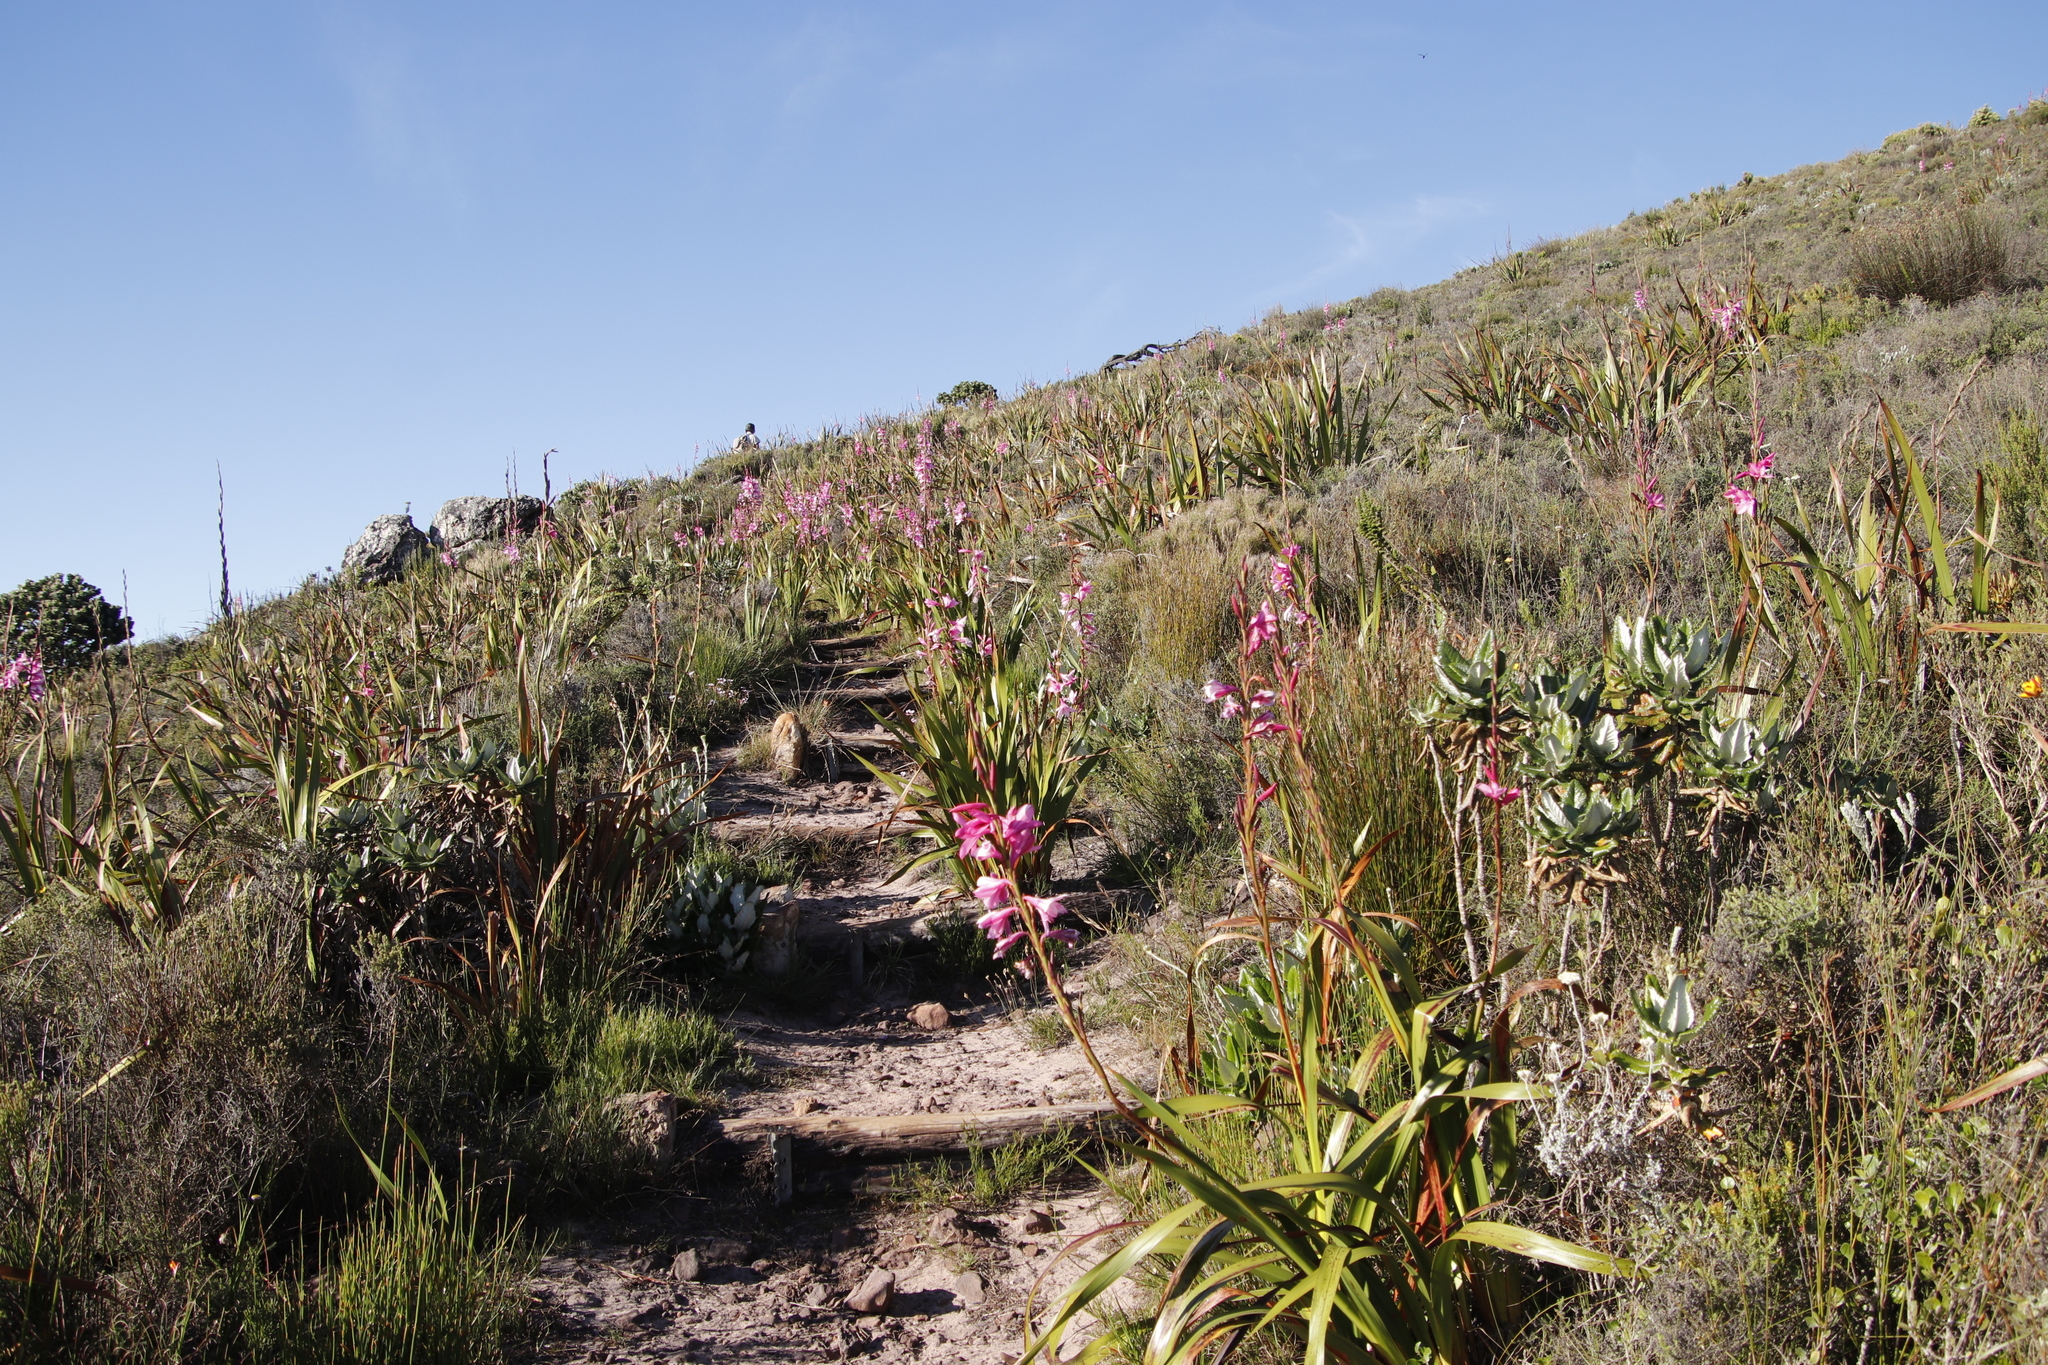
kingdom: Plantae
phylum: Tracheophyta
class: Liliopsida
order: Asparagales
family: Iridaceae
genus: Watsonia
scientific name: Watsonia borbonica
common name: Bugle-lily
